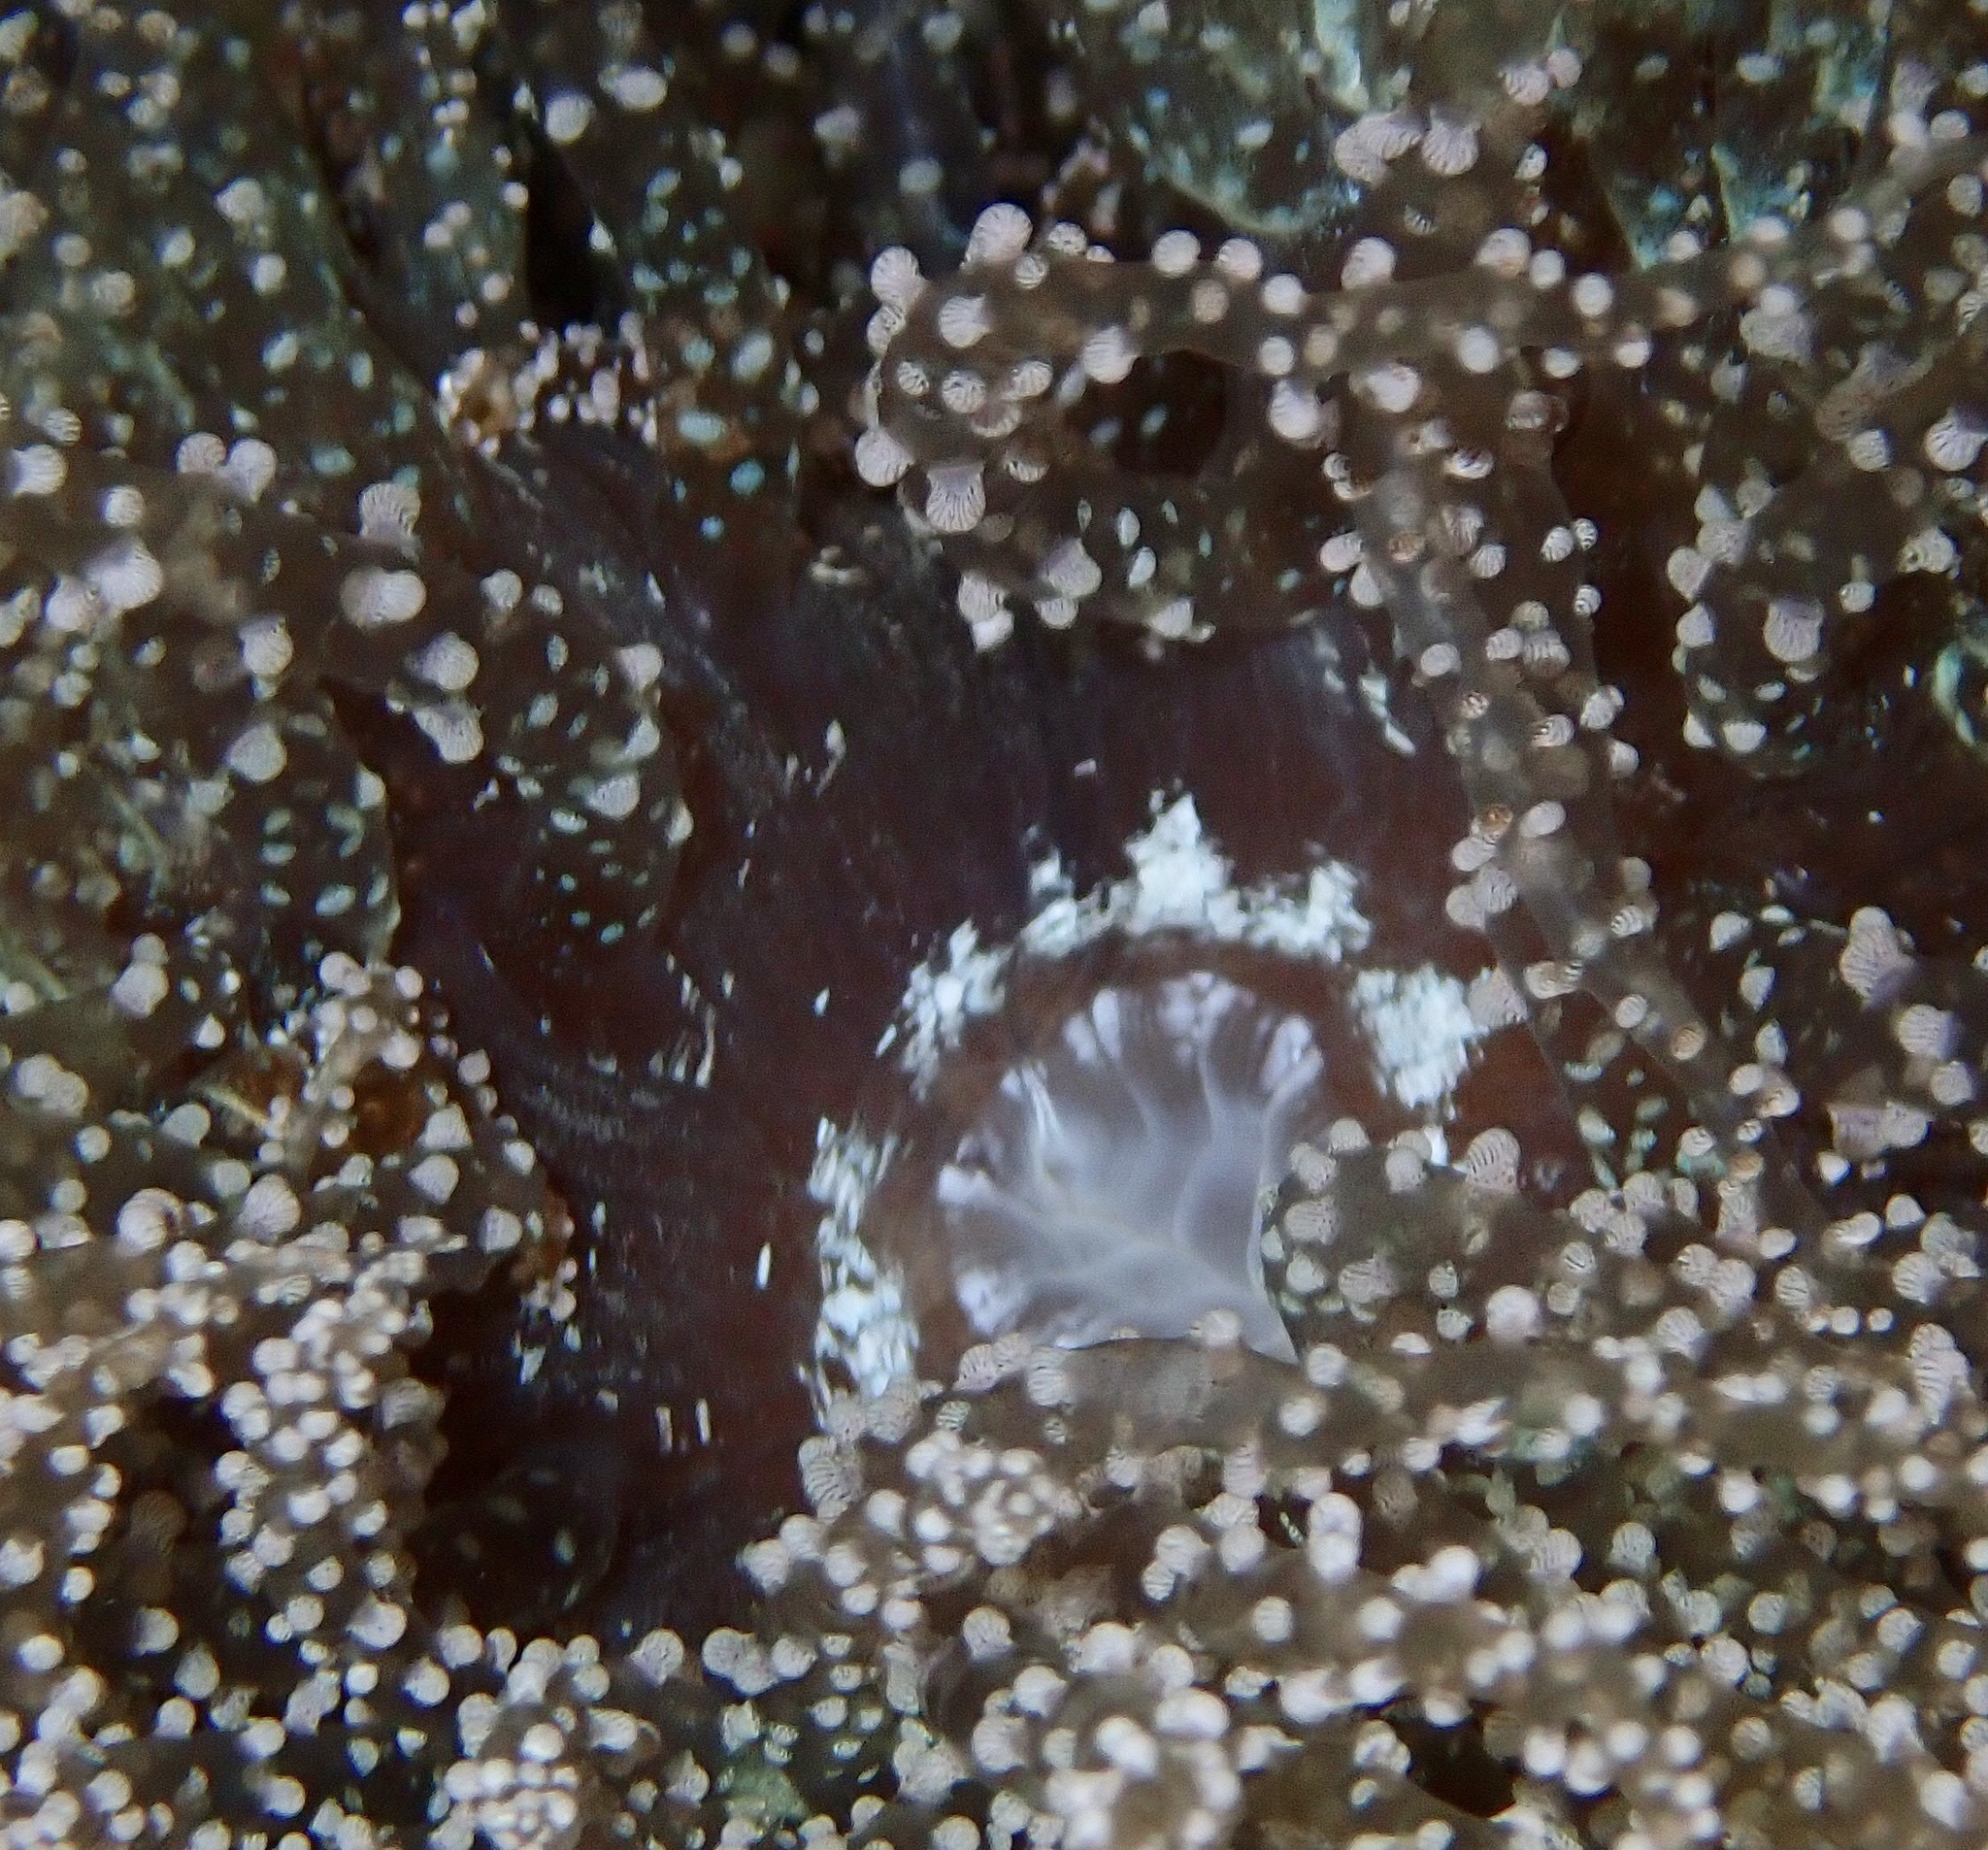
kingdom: Animalia
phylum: Cnidaria
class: Anthozoa
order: Actiniaria
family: Aiptasiidae
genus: Laviactis
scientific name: Laviactis lucida
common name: Atlantic beaded anemone
